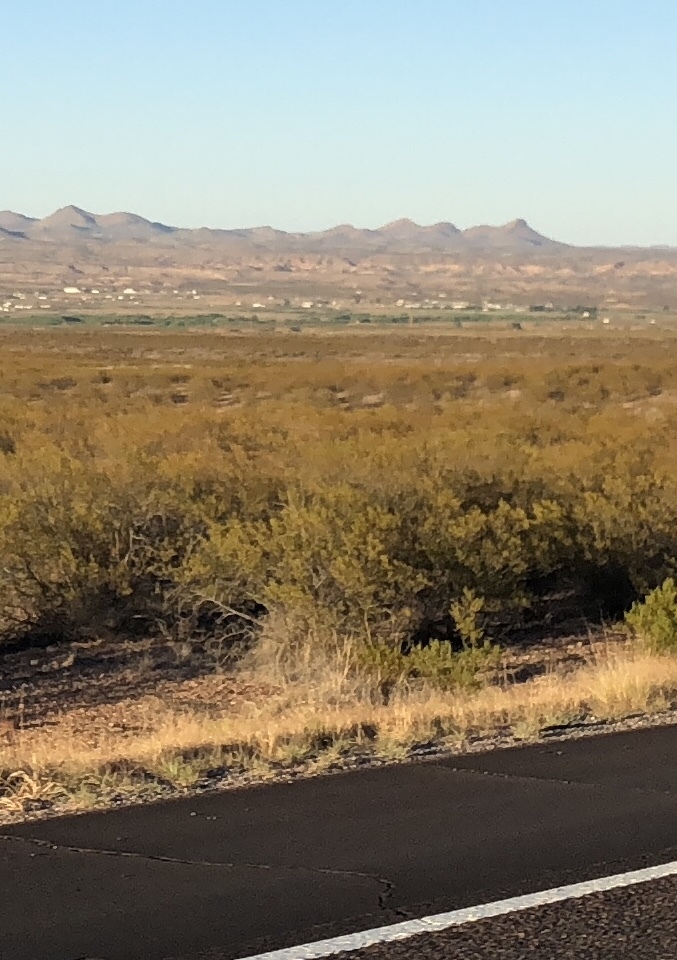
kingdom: Plantae
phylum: Tracheophyta
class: Magnoliopsida
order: Zygophyllales
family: Zygophyllaceae
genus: Larrea
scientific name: Larrea tridentata
